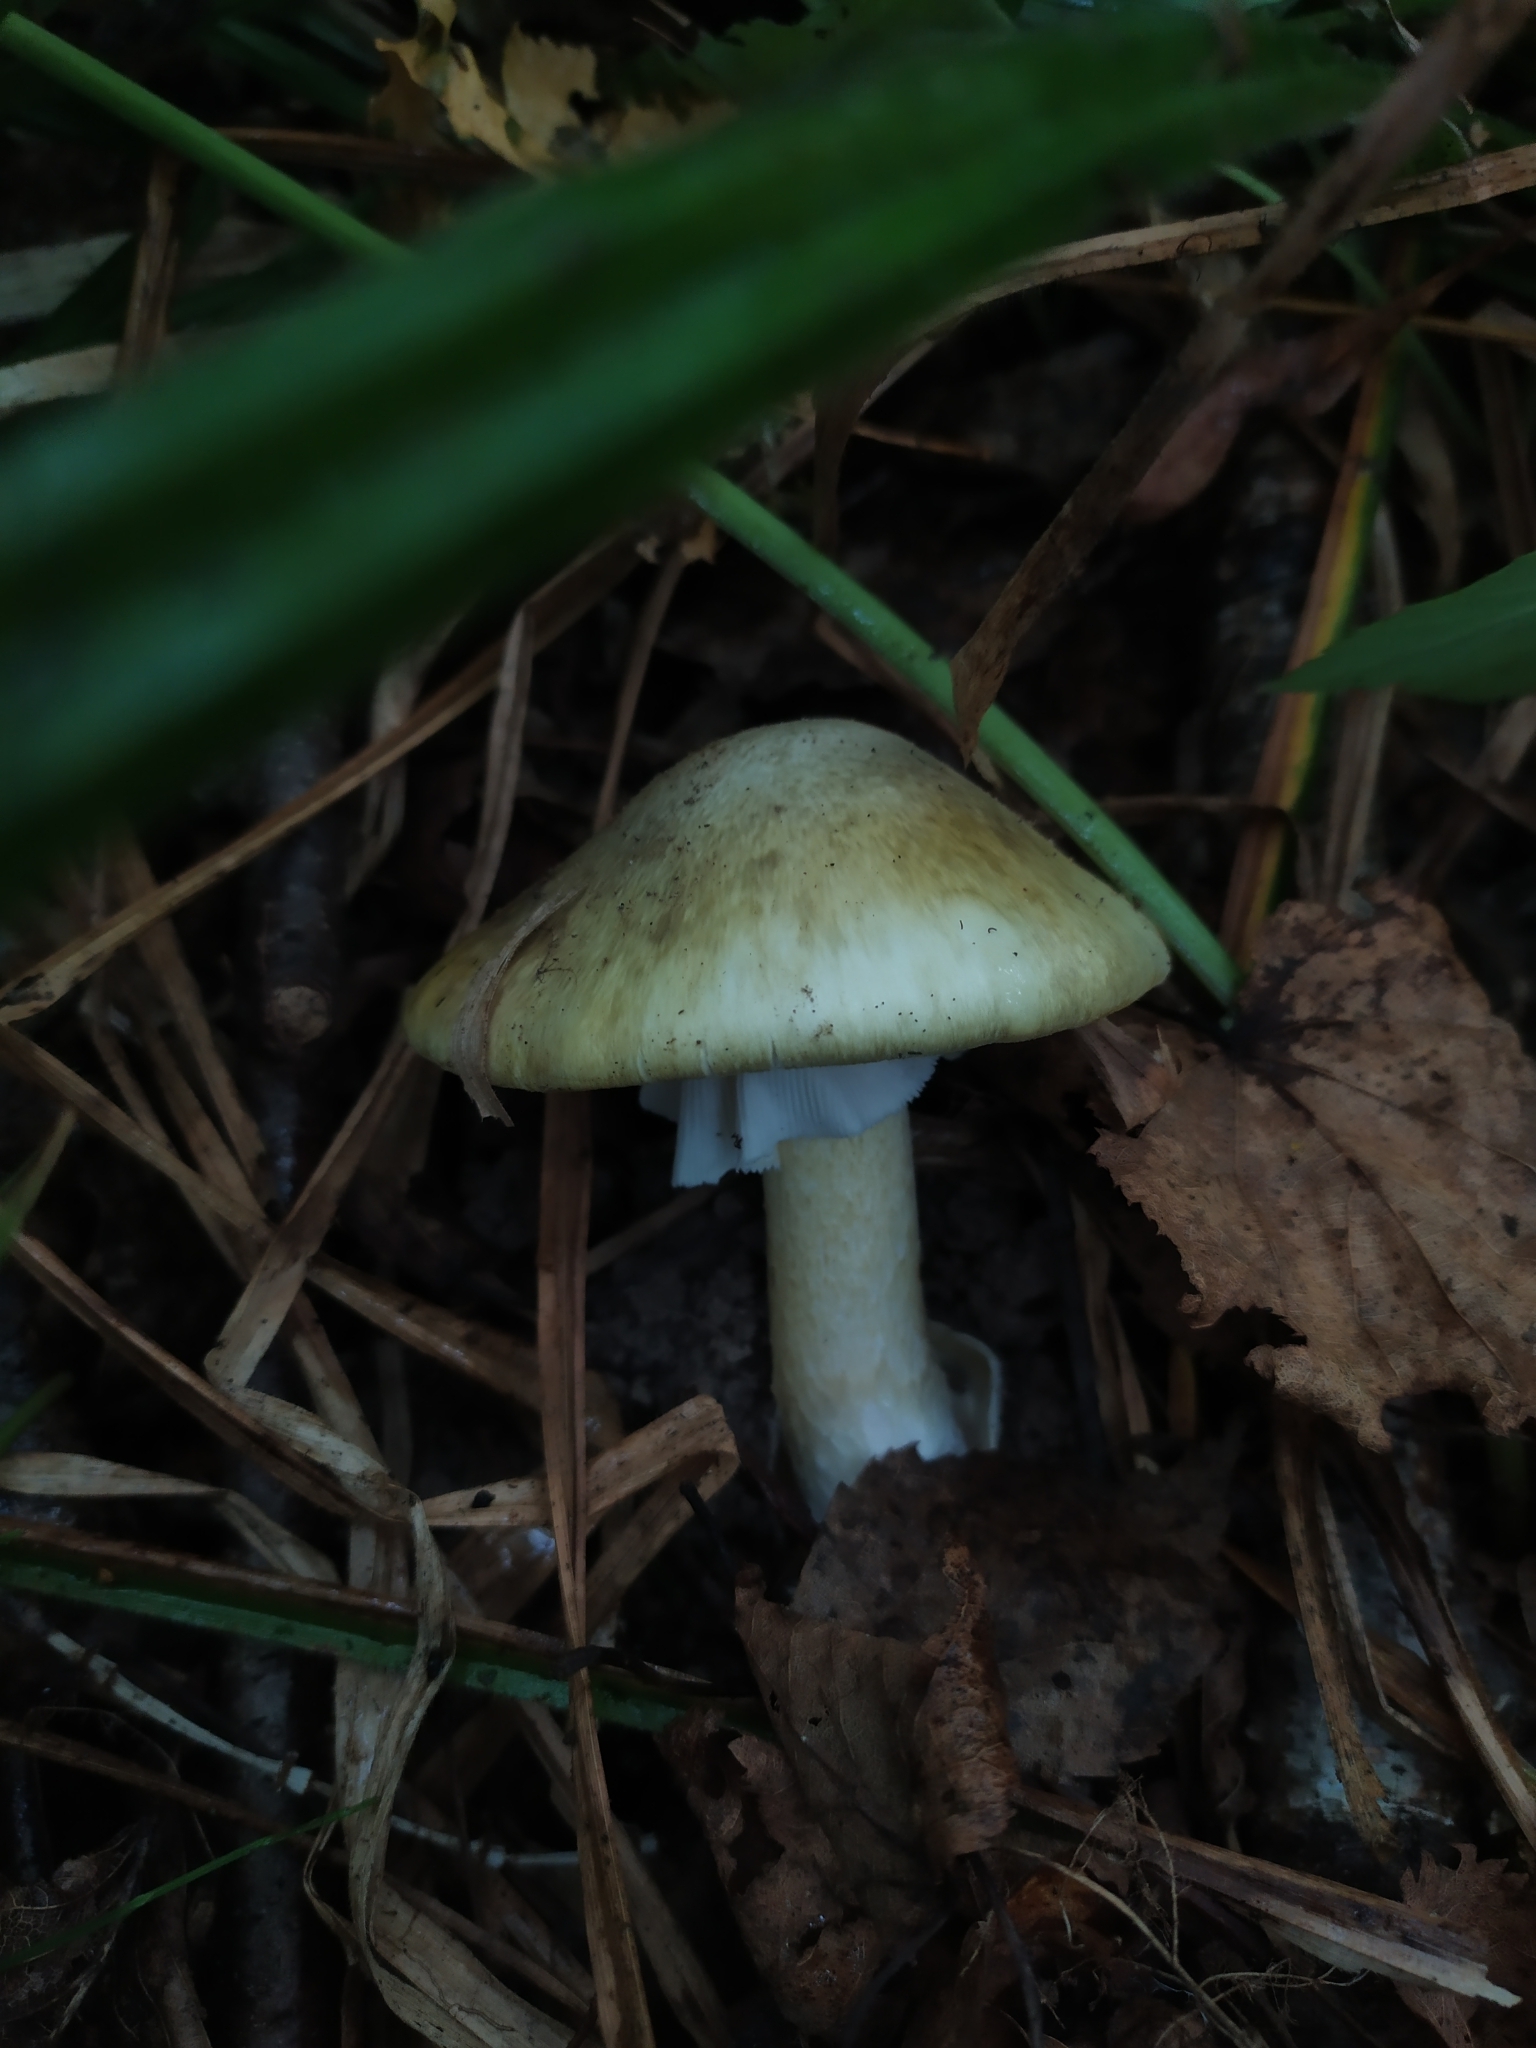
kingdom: Fungi
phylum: Basidiomycota
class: Agaricomycetes
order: Agaricales
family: Amanitaceae
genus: Amanita
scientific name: Amanita phalloides
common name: Death cap
